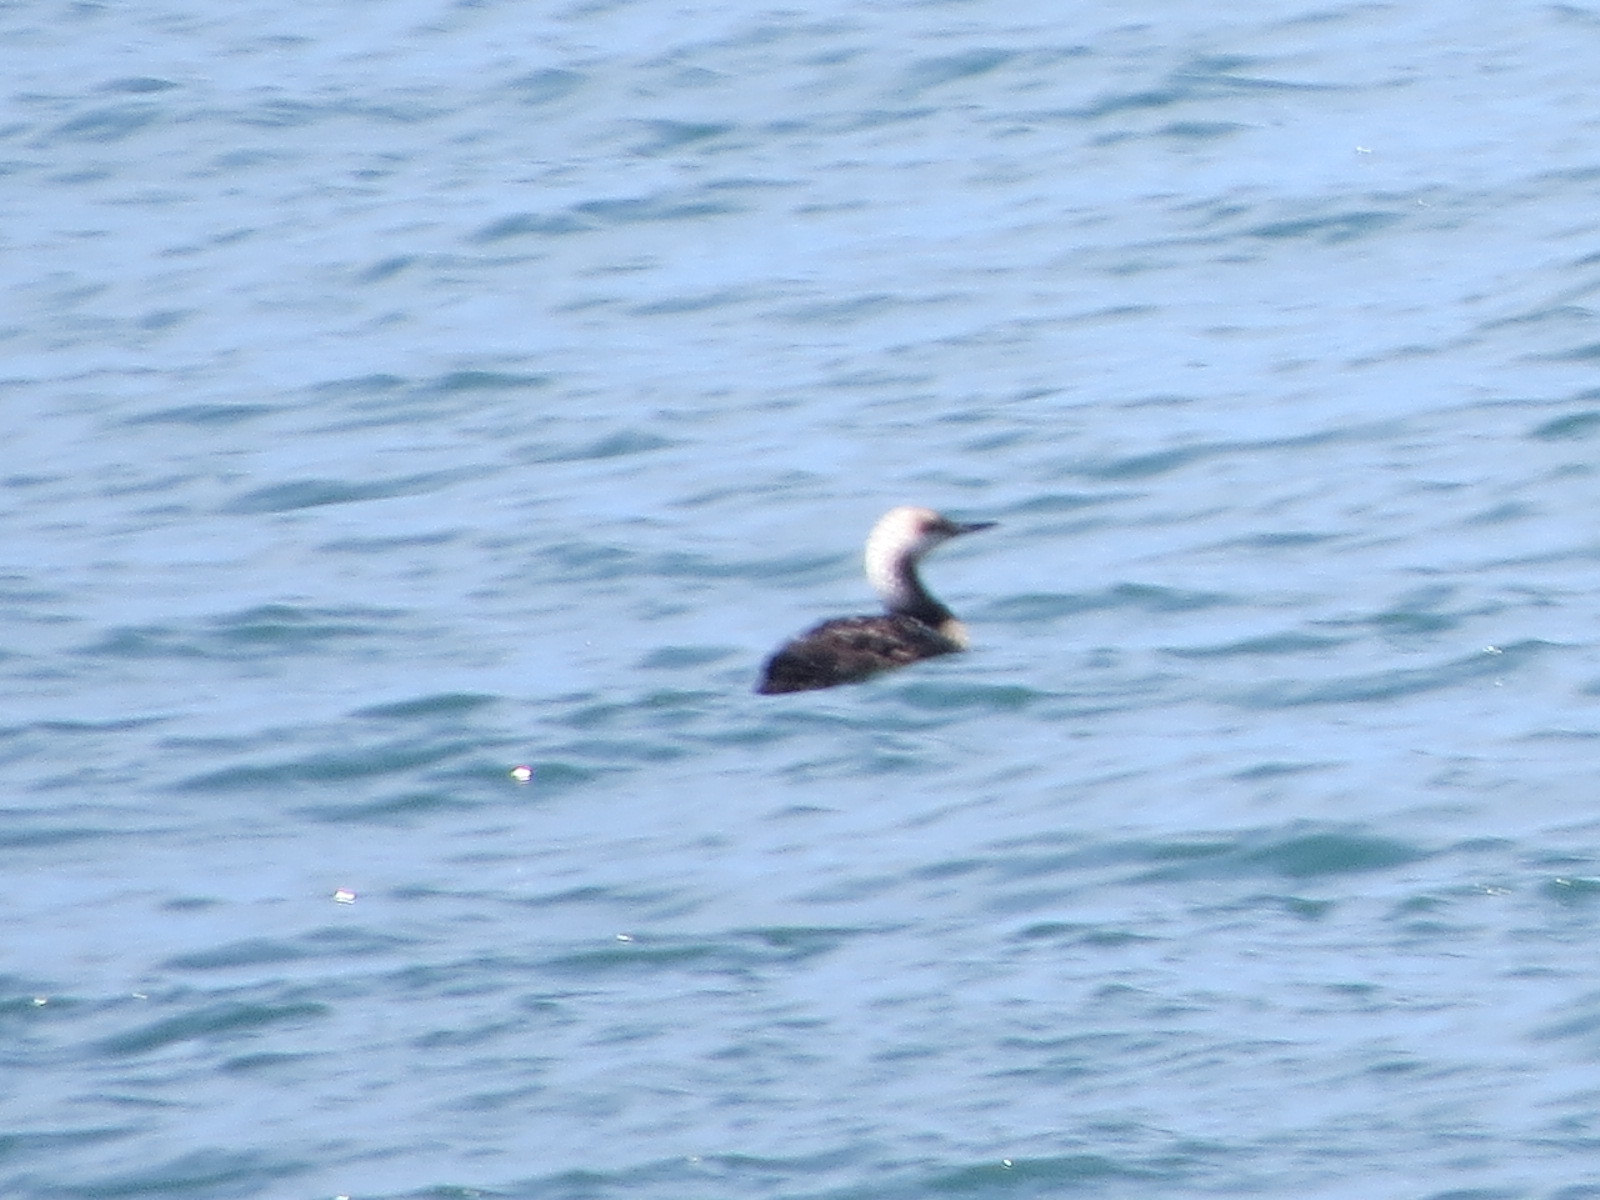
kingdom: Animalia
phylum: Chordata
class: Aves
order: Gaviiformes
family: Gaviidae
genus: Gavia
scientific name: Gavia stellata
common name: Red-throated loon
